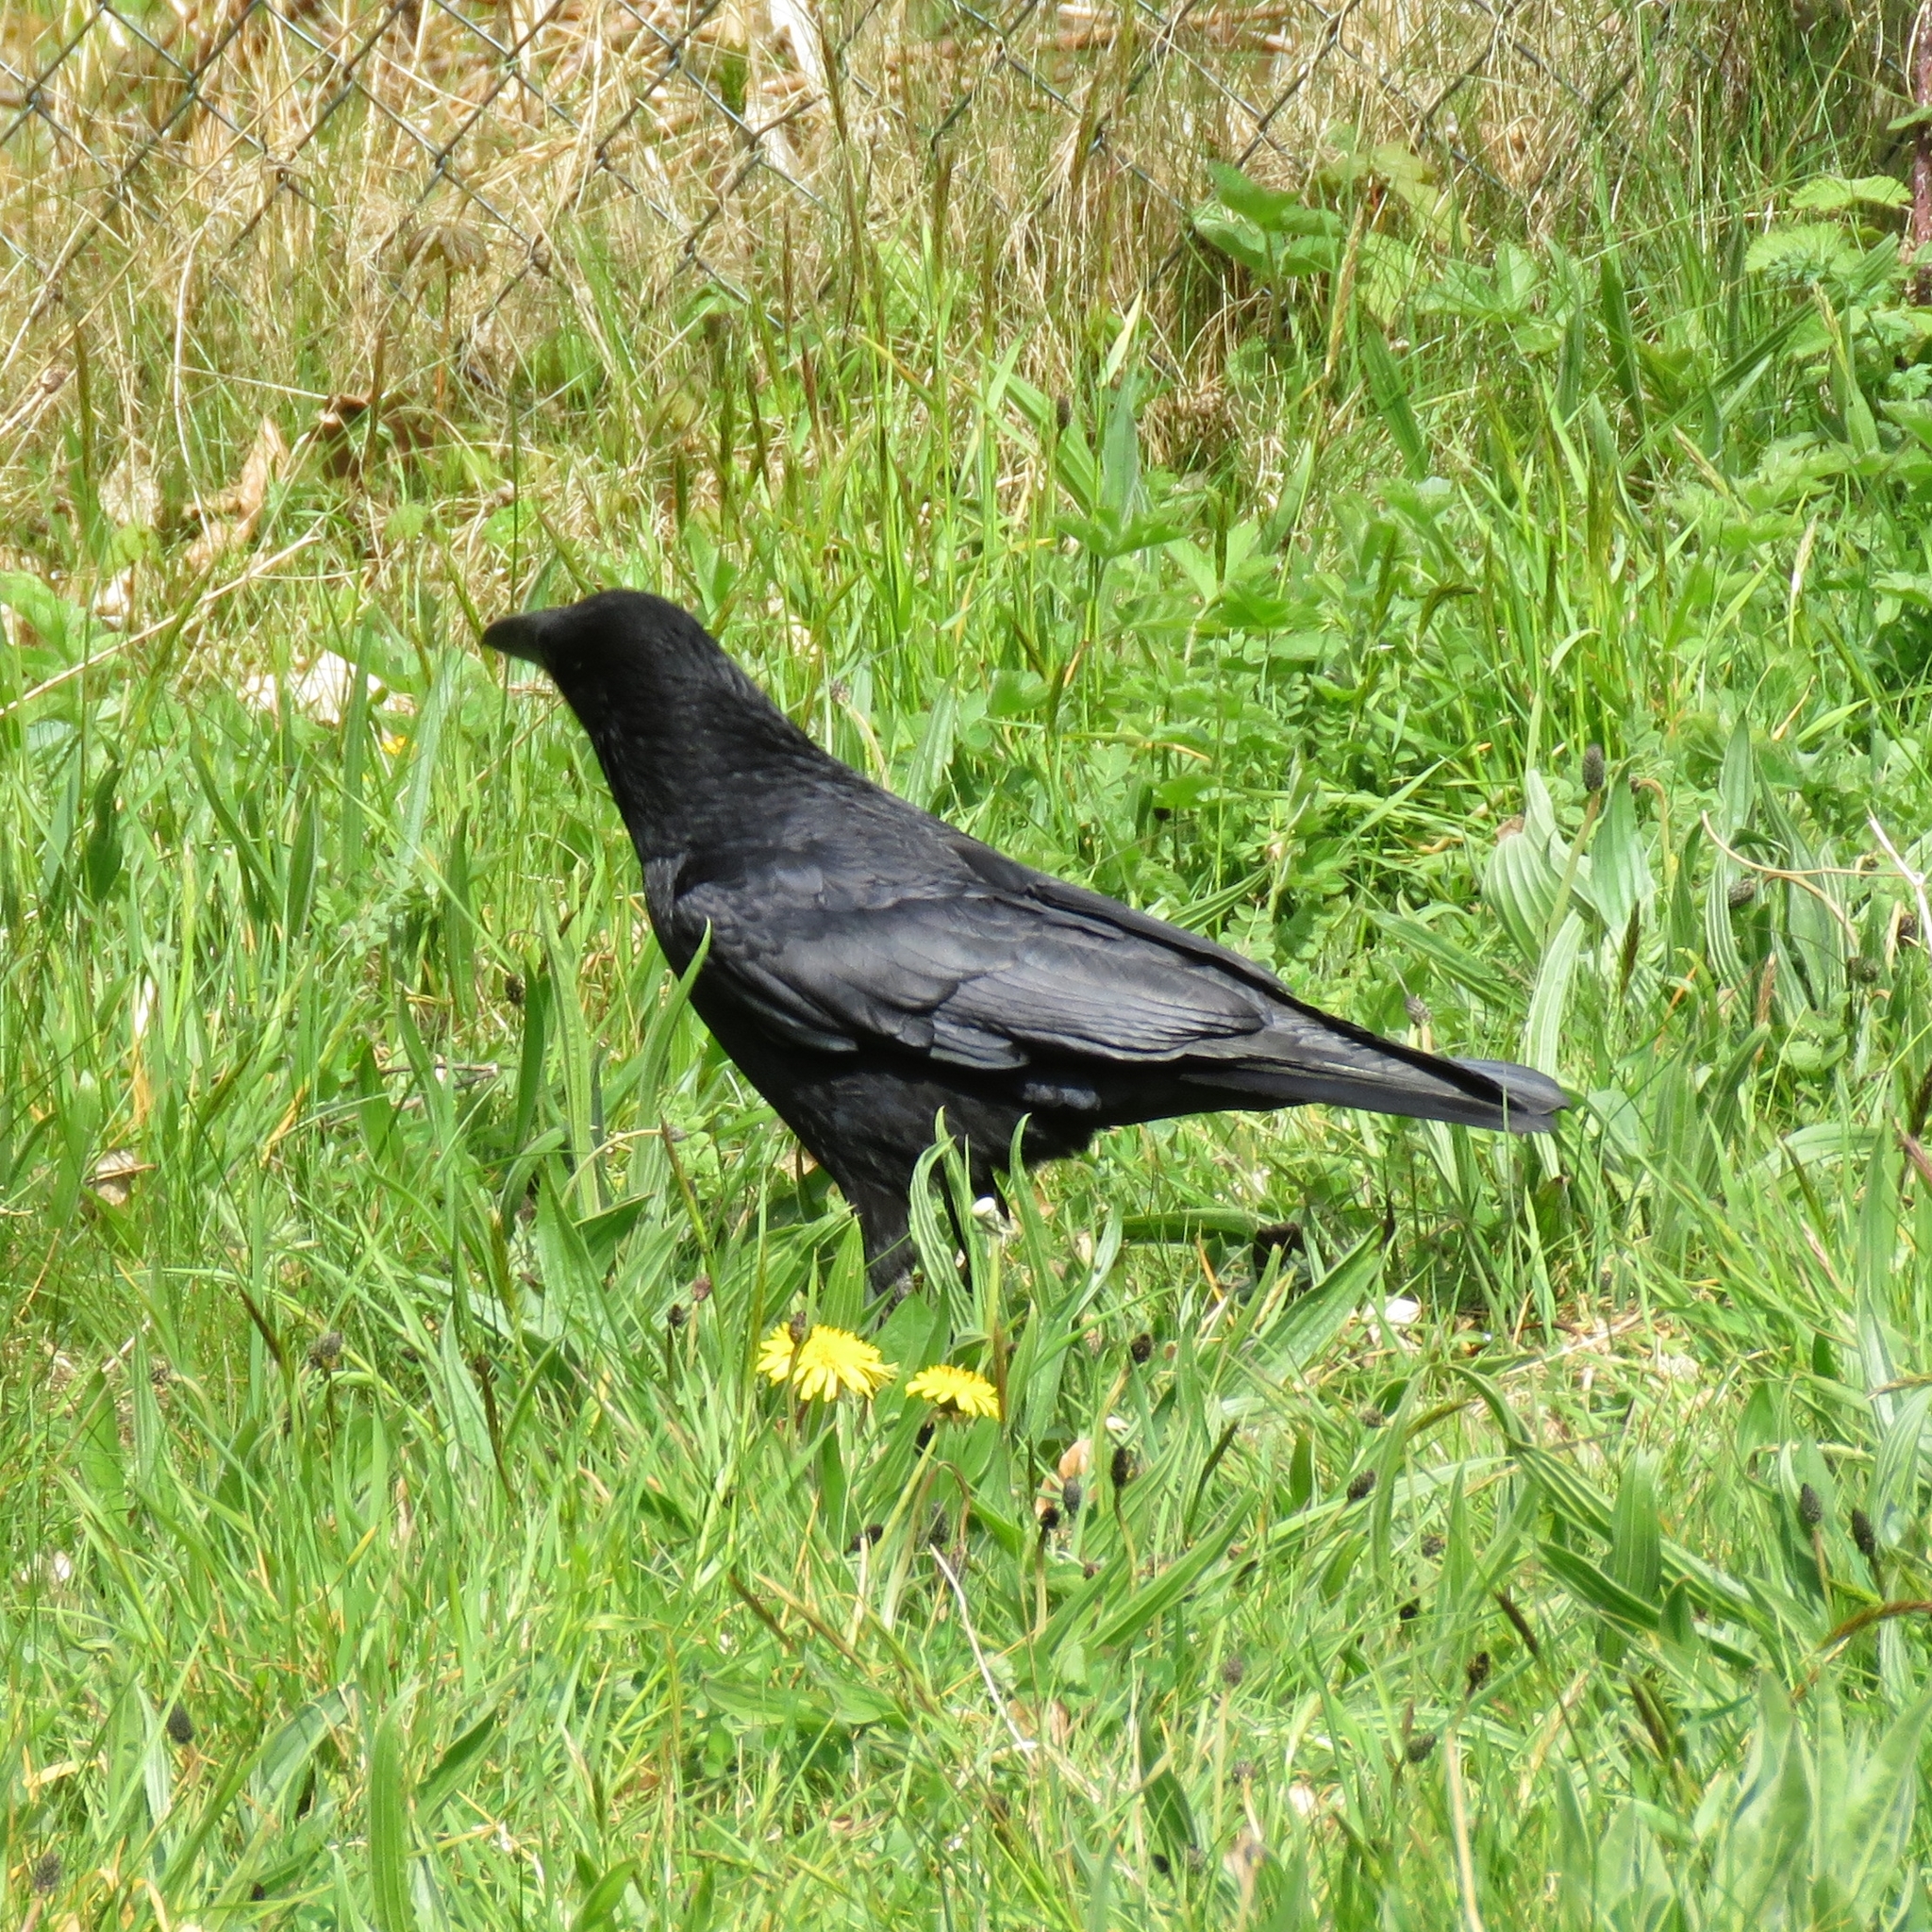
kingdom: Animalia
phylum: Chordata
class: Aves
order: Passeriformes
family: Corvidae
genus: Corvus
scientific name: Corvus corone
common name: Carrion crow
